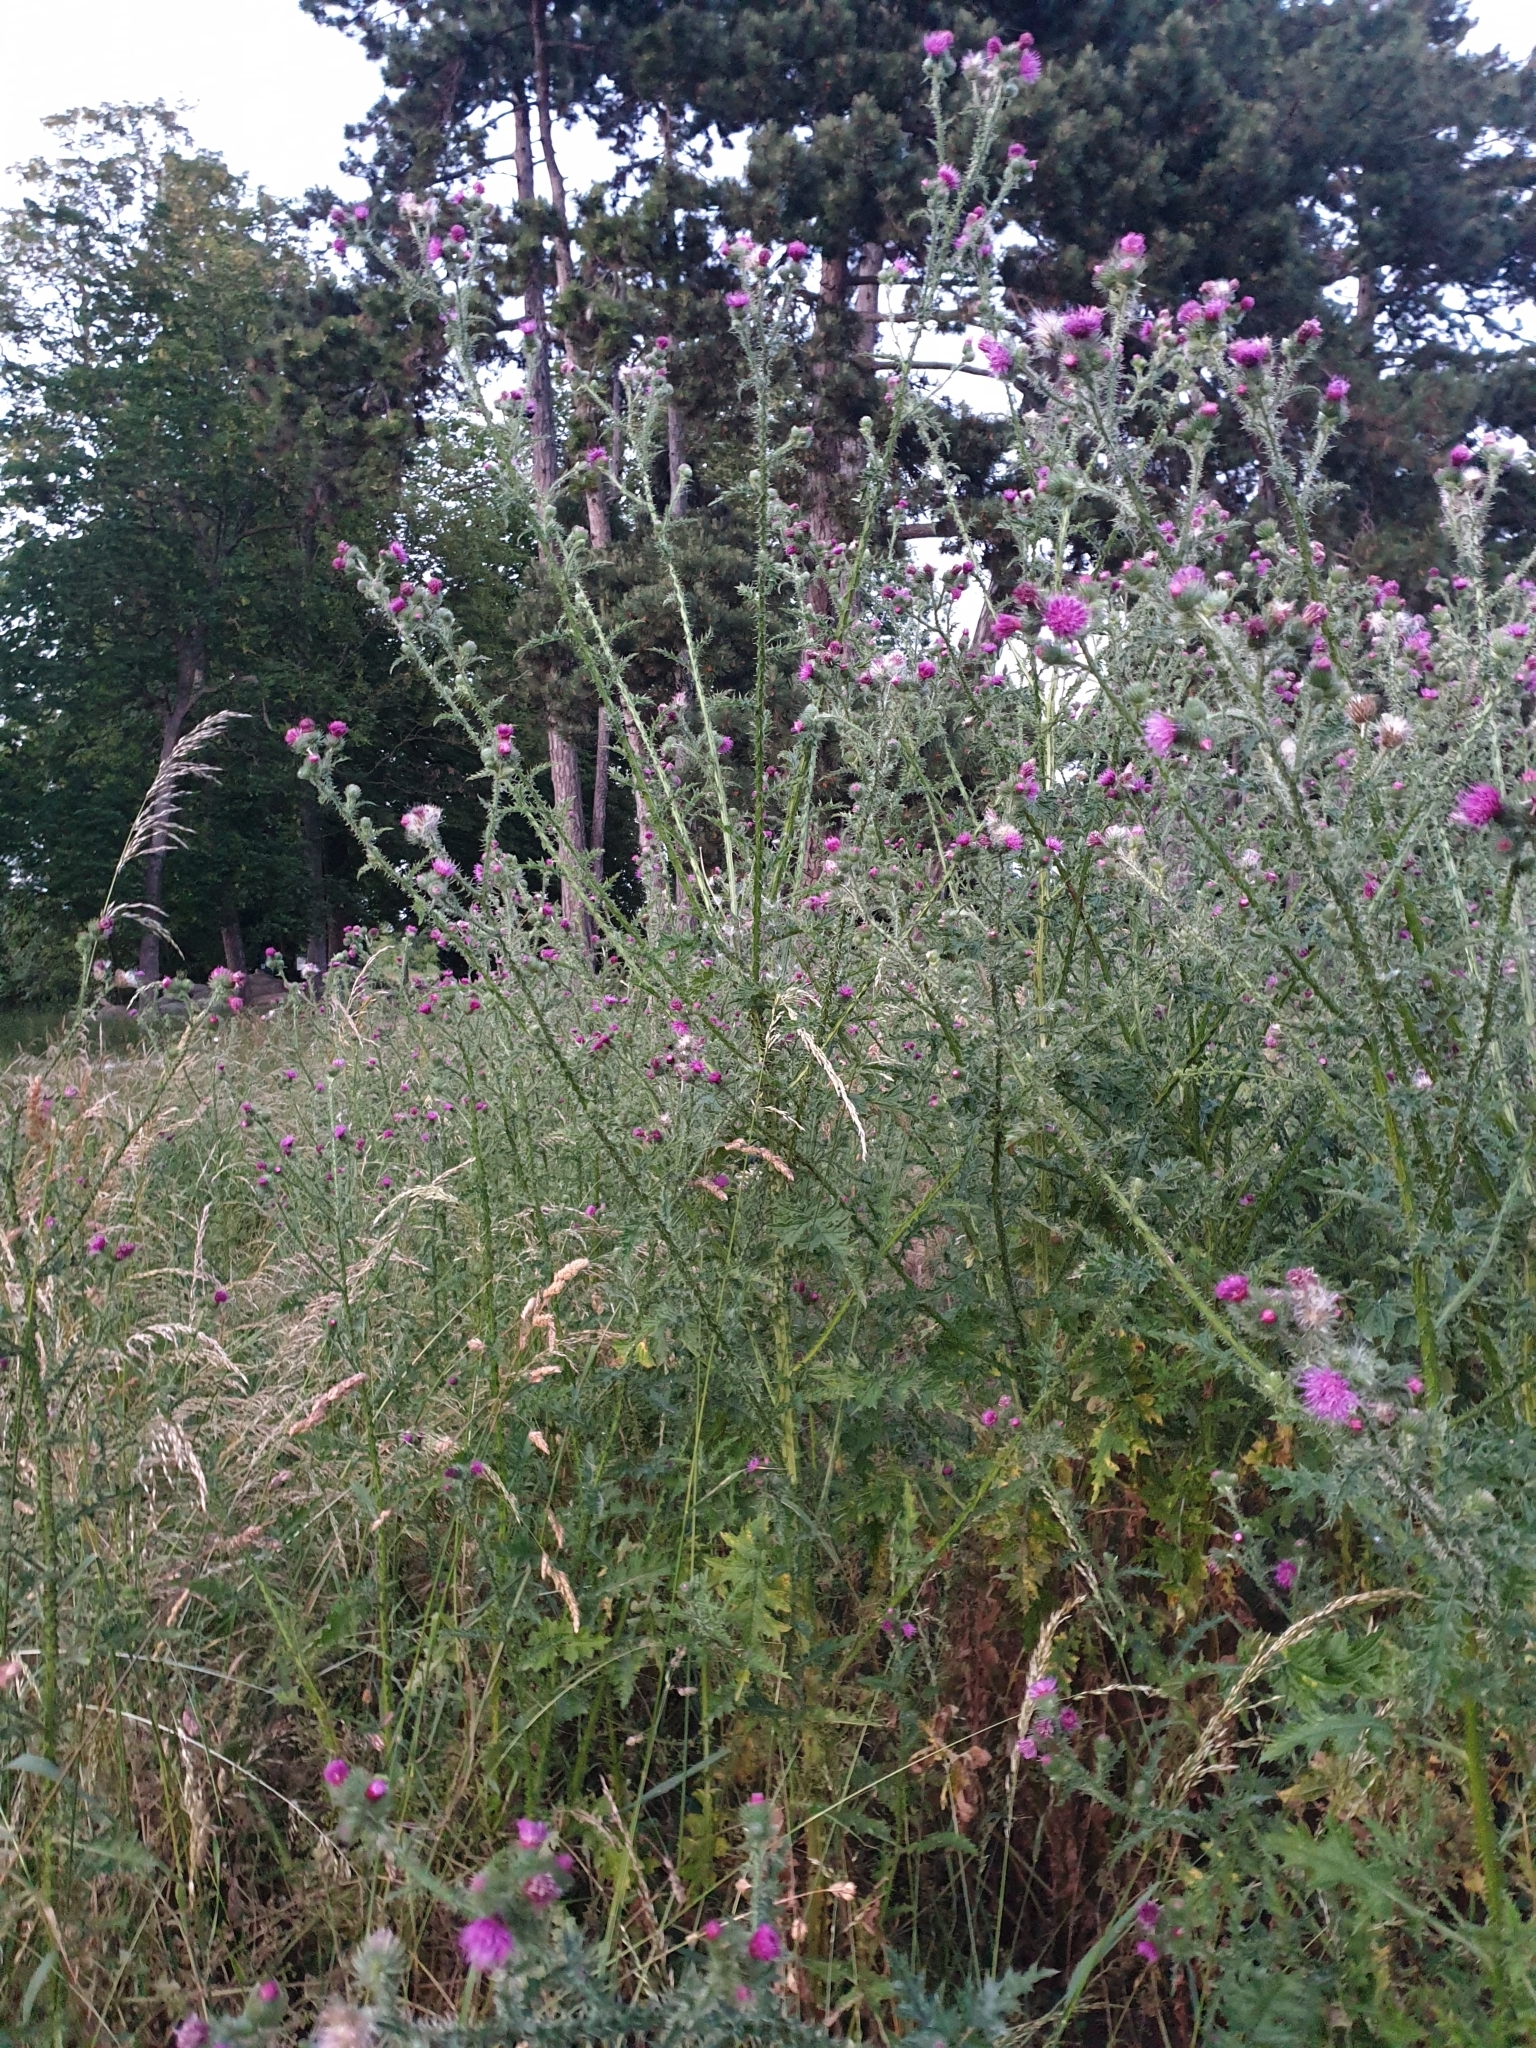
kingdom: Plantae
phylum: Tracheophyta
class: Magnoliopsida
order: Asterales
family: Asteraceae
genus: Carduus
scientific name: Carduus crispus
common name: Welted thistle
